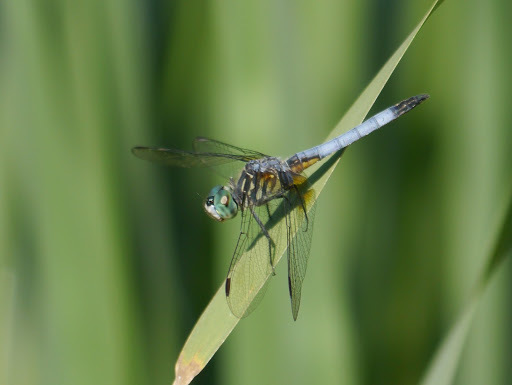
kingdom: Animalia
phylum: Arthropoda
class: Insecta
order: Odonata
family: Libellulidae
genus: Pachydiplax
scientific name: Pachydiplax longipennis
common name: Blue dasher
